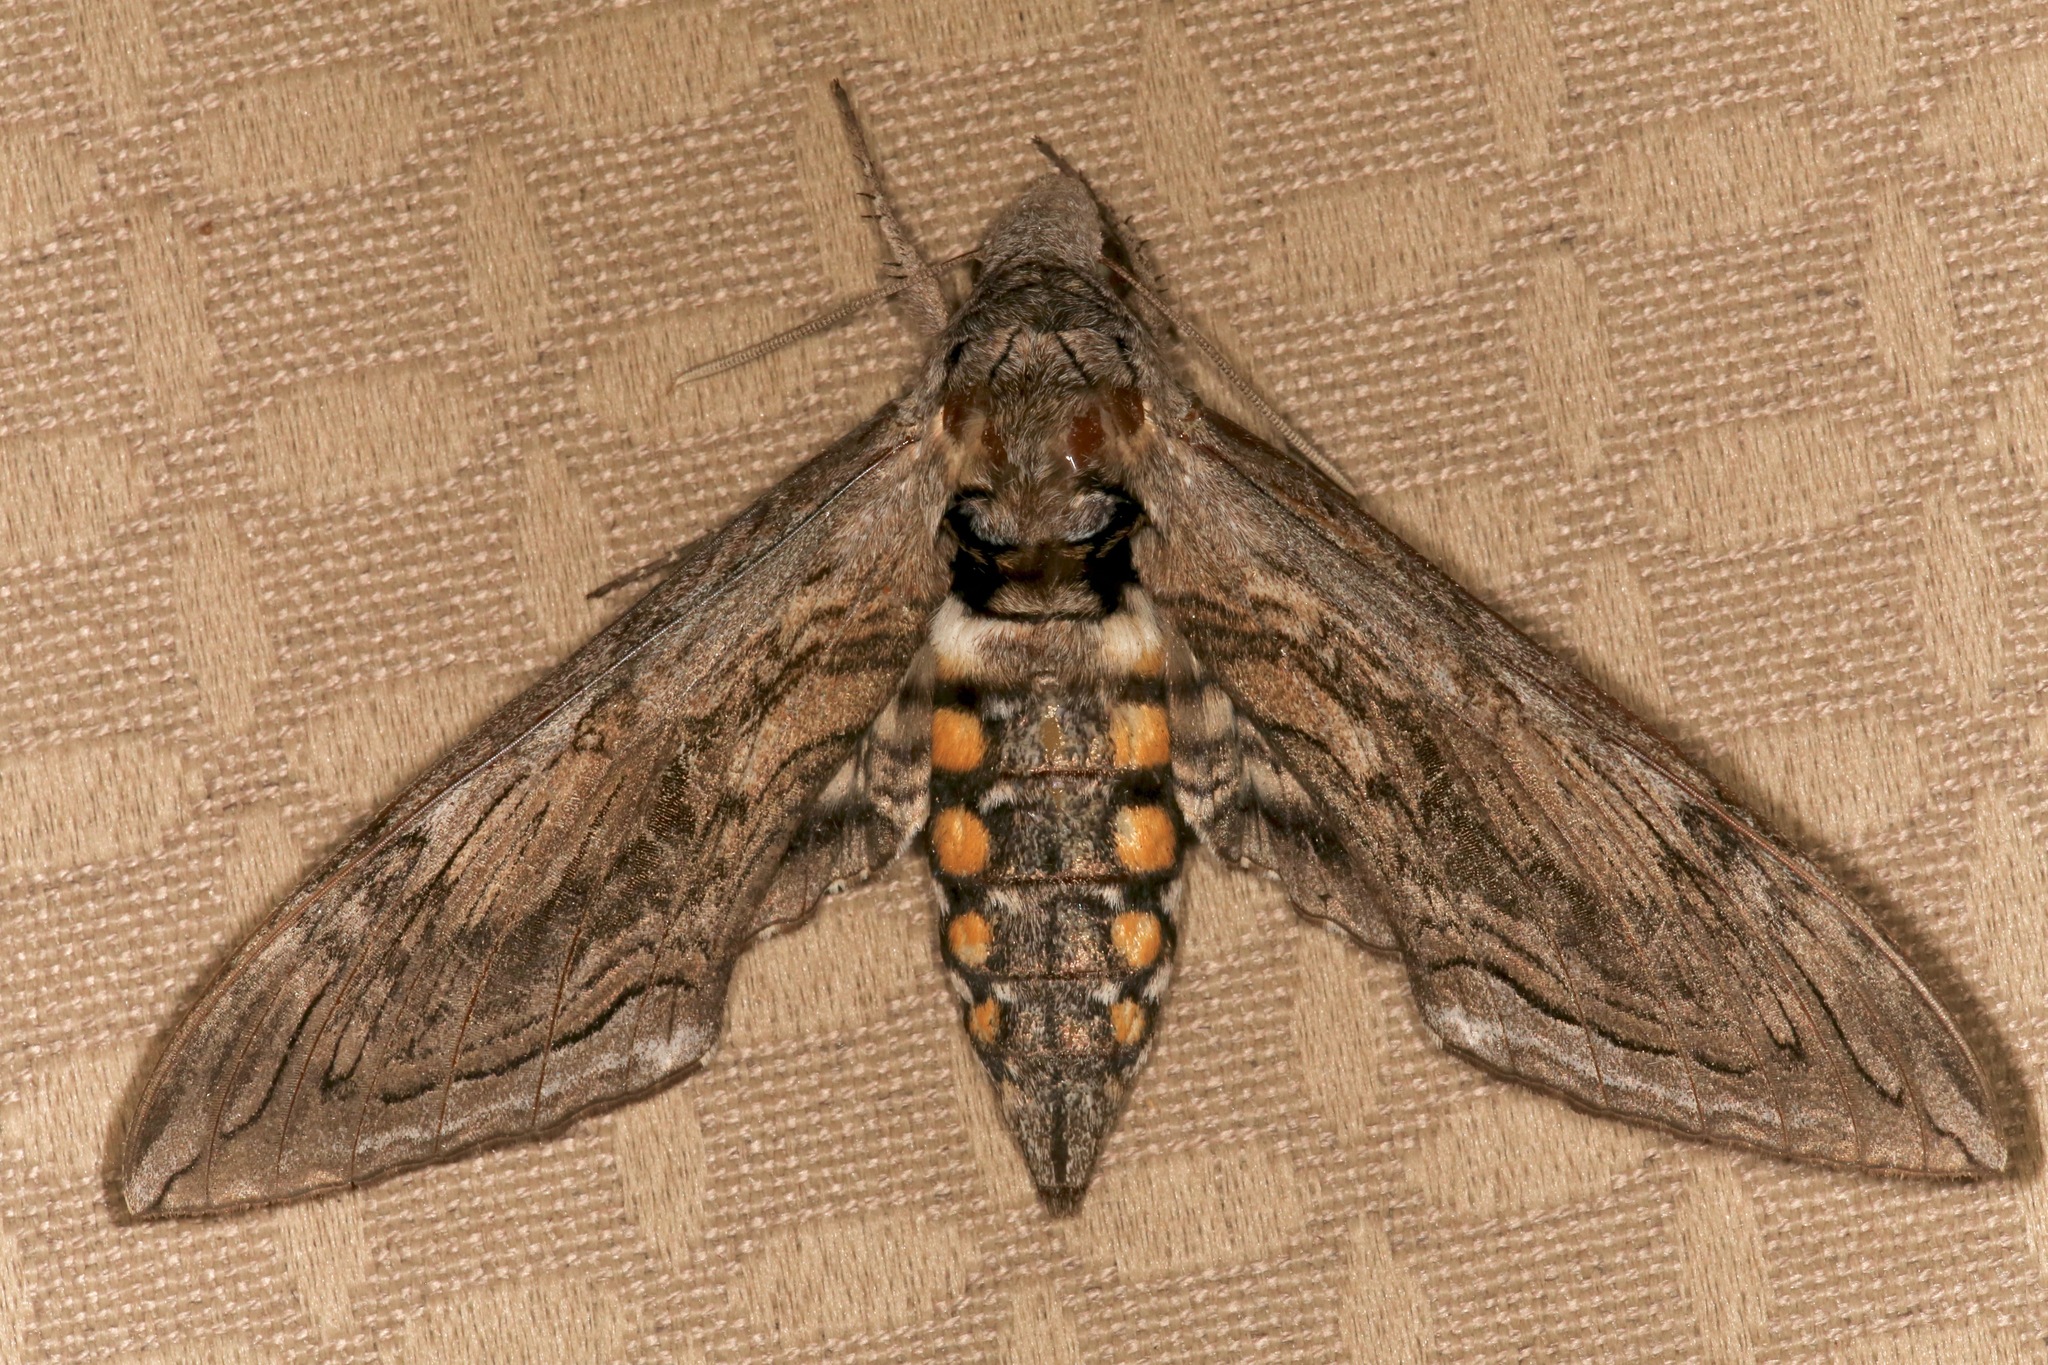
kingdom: Animalia
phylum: Arthropoda
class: Insecta
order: Lepidoptera
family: Sphingidae
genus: Manduca
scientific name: Manduca quinquemaculatus
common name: Five-spotted hawk-moth
